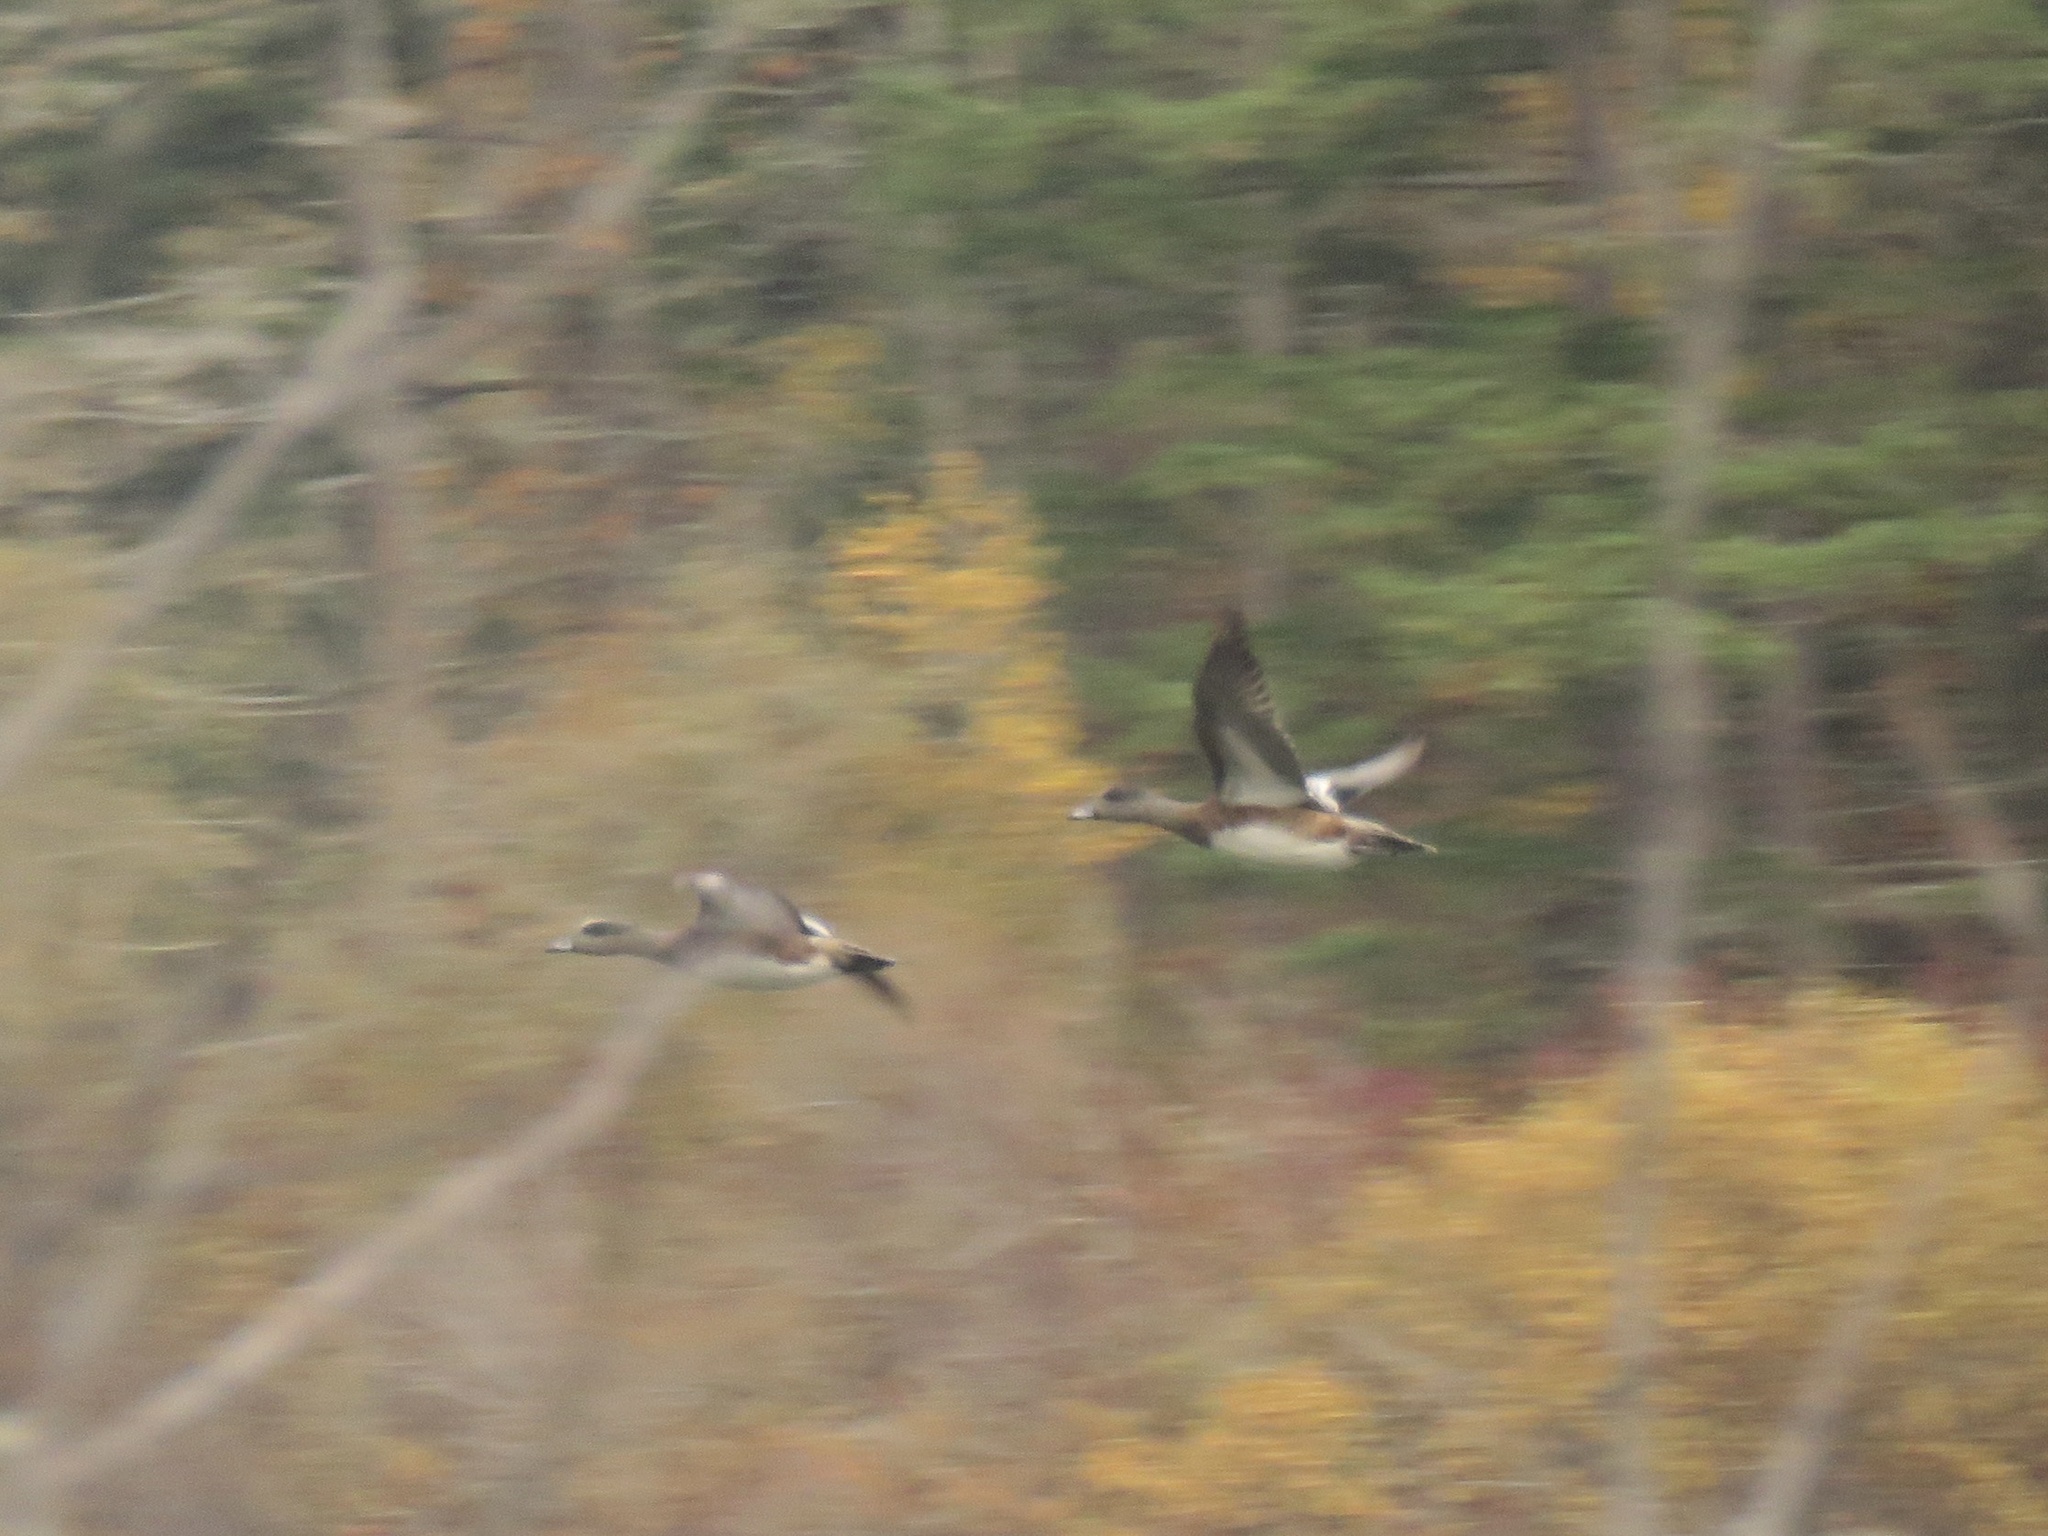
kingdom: Animalia
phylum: Chordata
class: Aves
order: Anseriformes
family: Anatidae
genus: Mareca
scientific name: Mareca americana
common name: American wigeon
